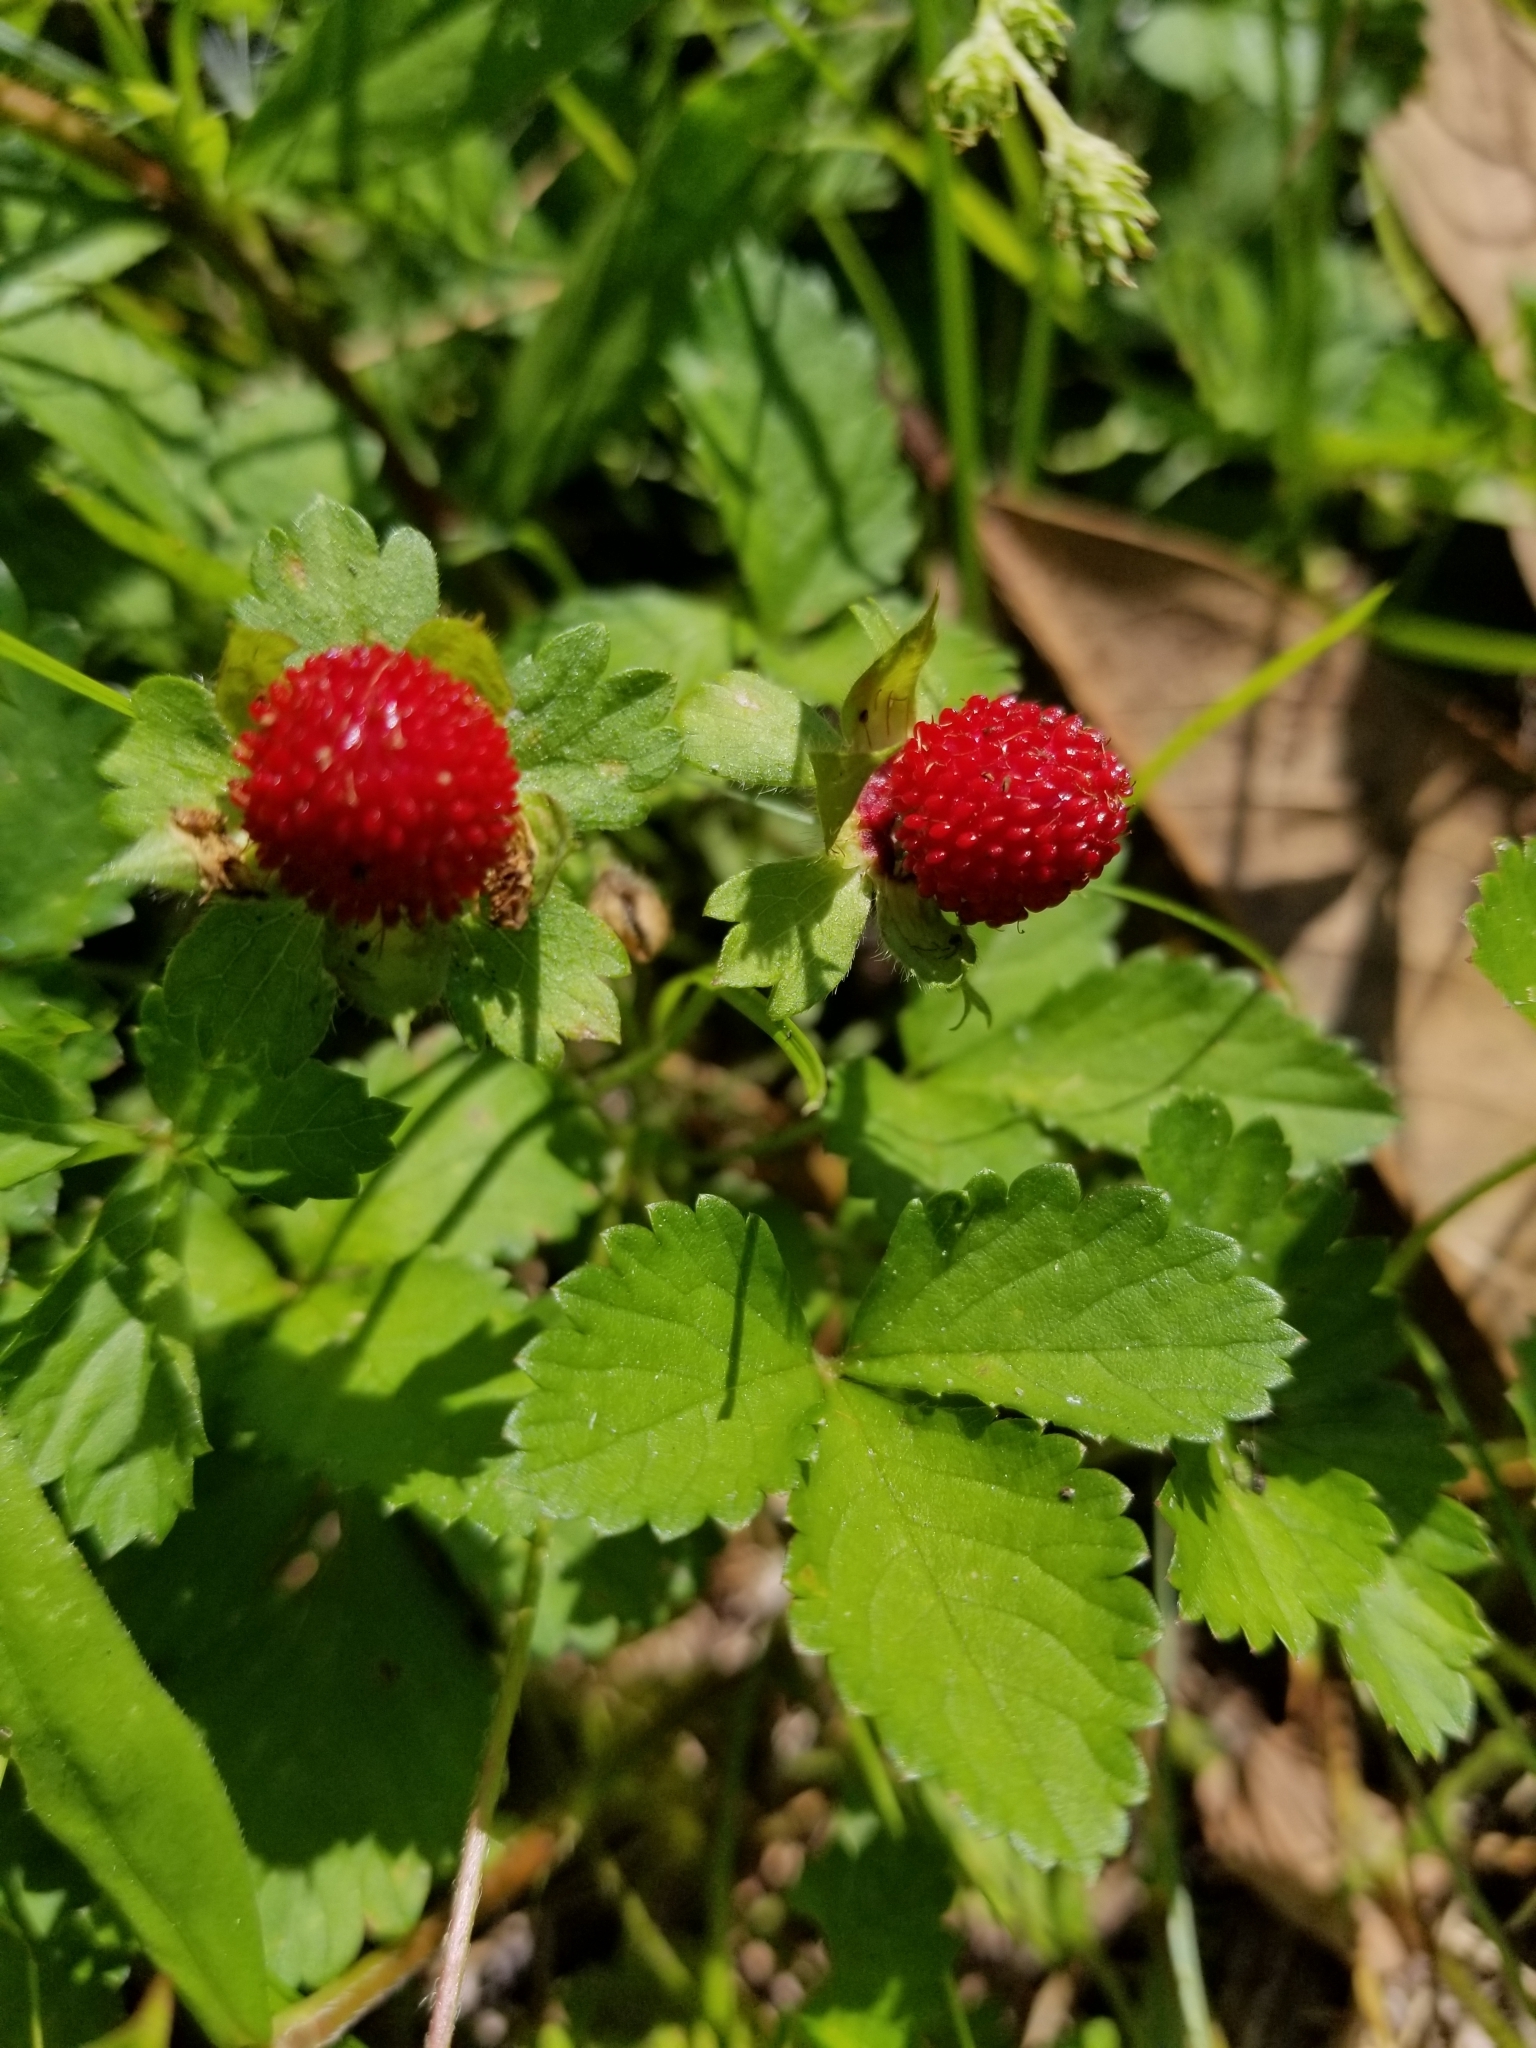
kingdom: Plantae
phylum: Tracheophyta
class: Magnoliopsida
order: Rosales
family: Rosaceae
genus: Potentilla
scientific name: Potentilla indica
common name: Yellow-flowered strawberry
